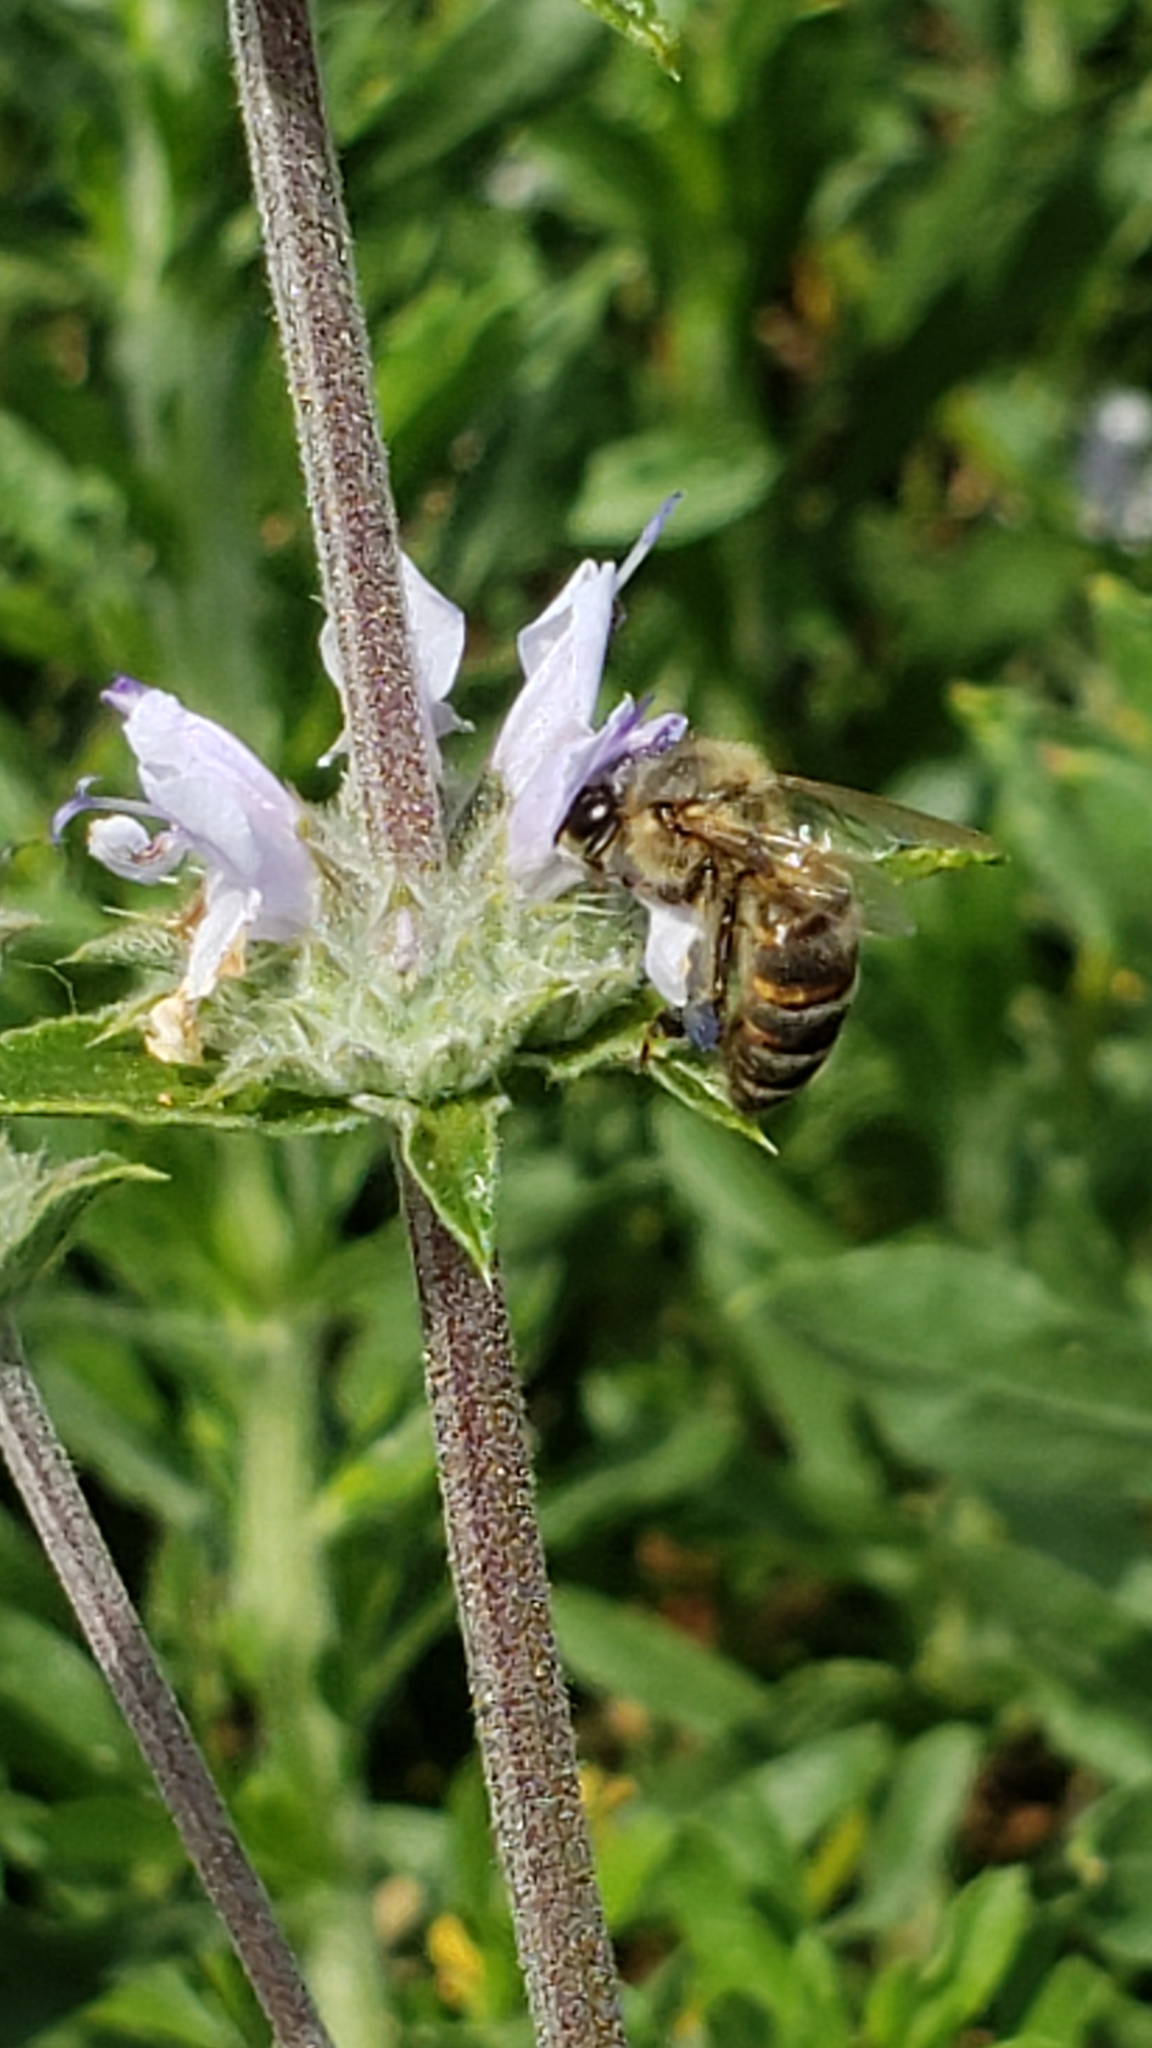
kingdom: Animalia
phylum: Arthropoda
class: Insecta
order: Hymenoptera
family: Apidae
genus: Apis
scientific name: Apis mellifera
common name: Honey bee
